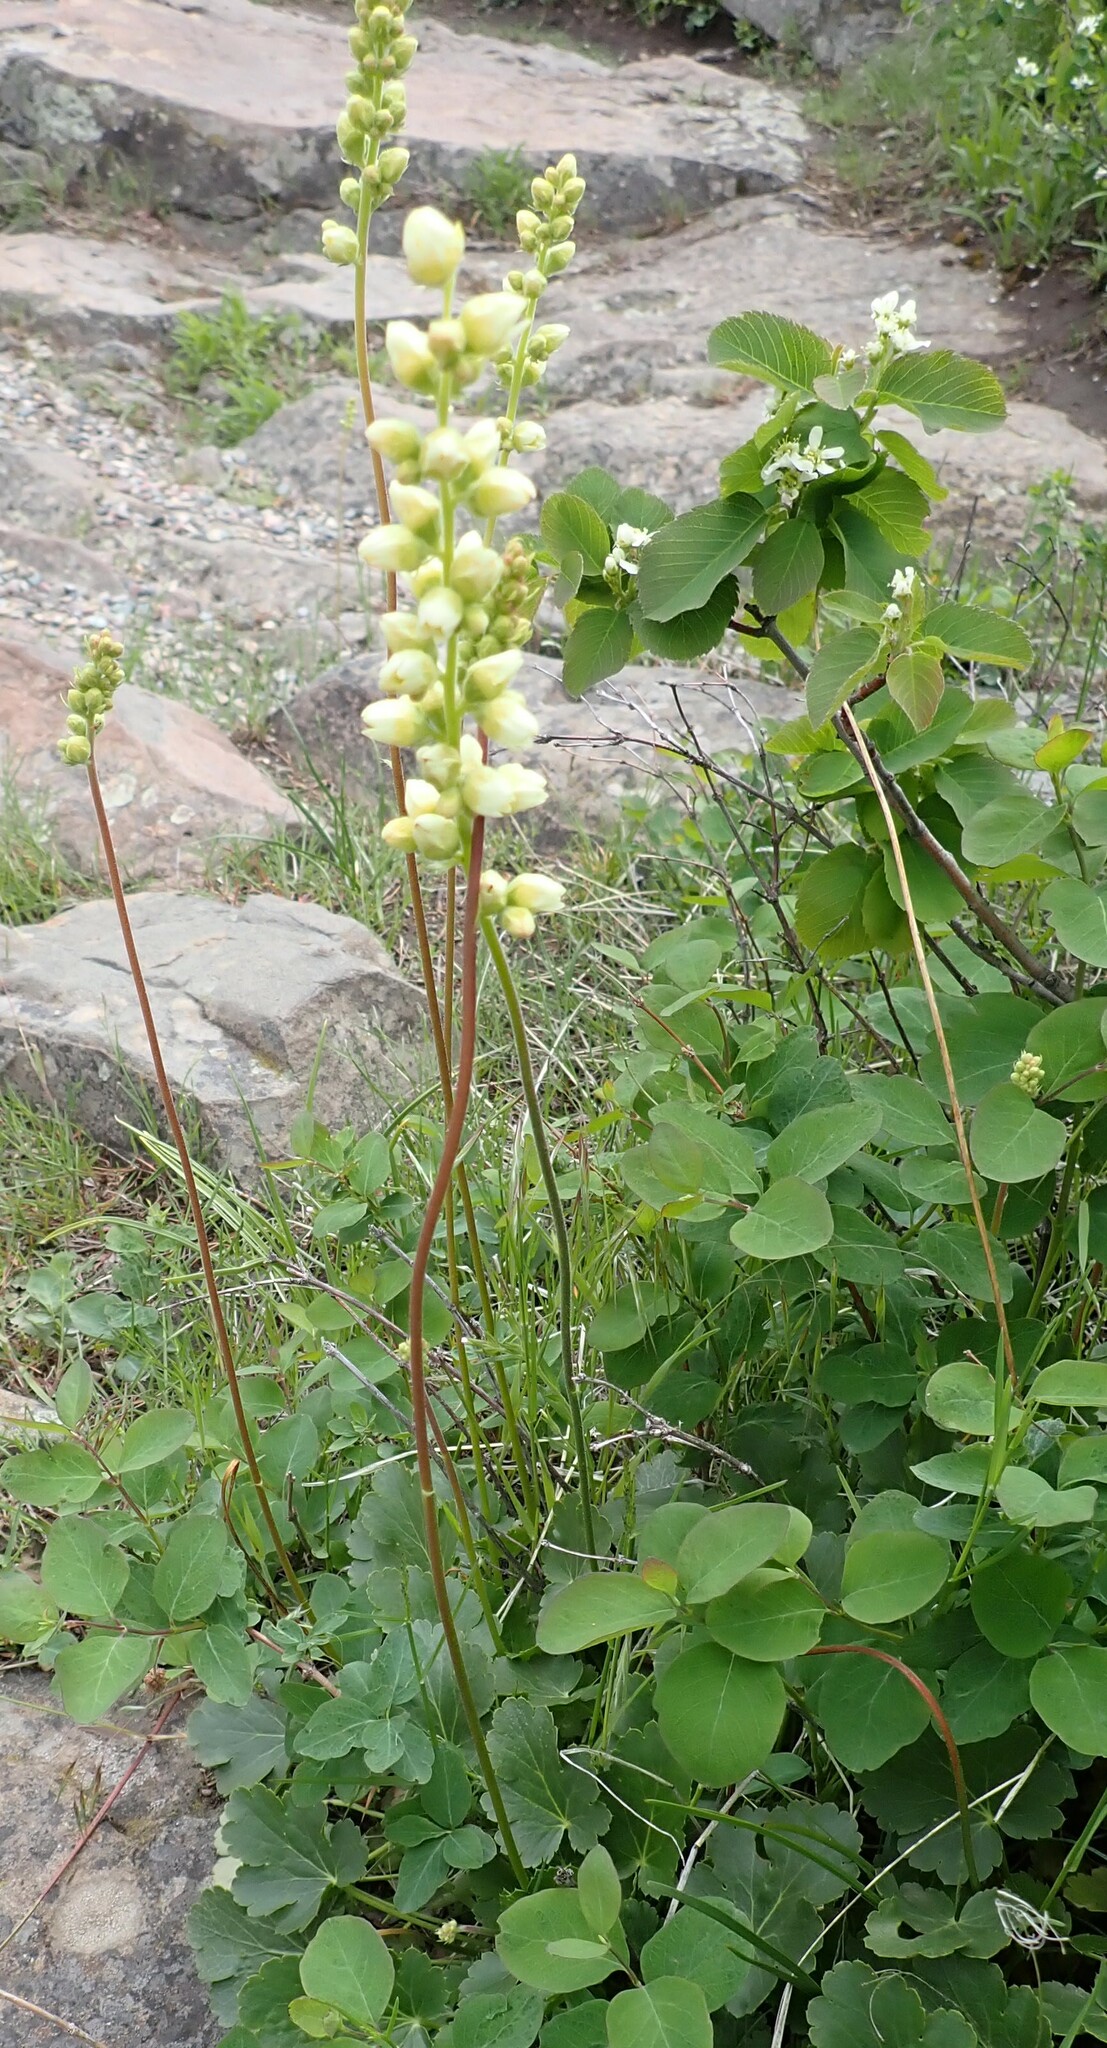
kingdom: Plantae
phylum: Tracheophyta
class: Magnoliopsida
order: Saxifragales
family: Saxifragaceae
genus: Heuchera
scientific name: Heuchera cylindrica
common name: Mat alumroot
